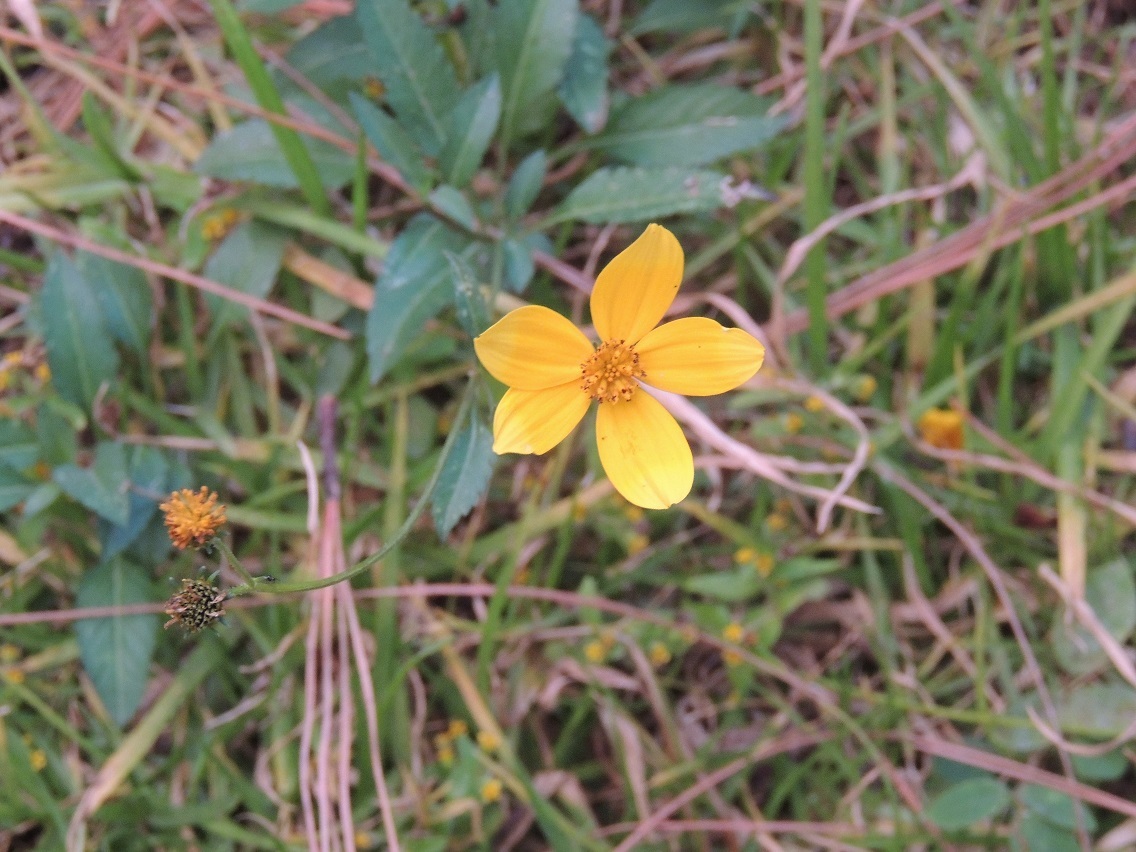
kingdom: Plantae
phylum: Tracheophyta
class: Magnoliopsida
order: Asterales
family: Asteraceae
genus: Bidens
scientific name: Bidens aurea
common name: Arizona beggar-ticks
